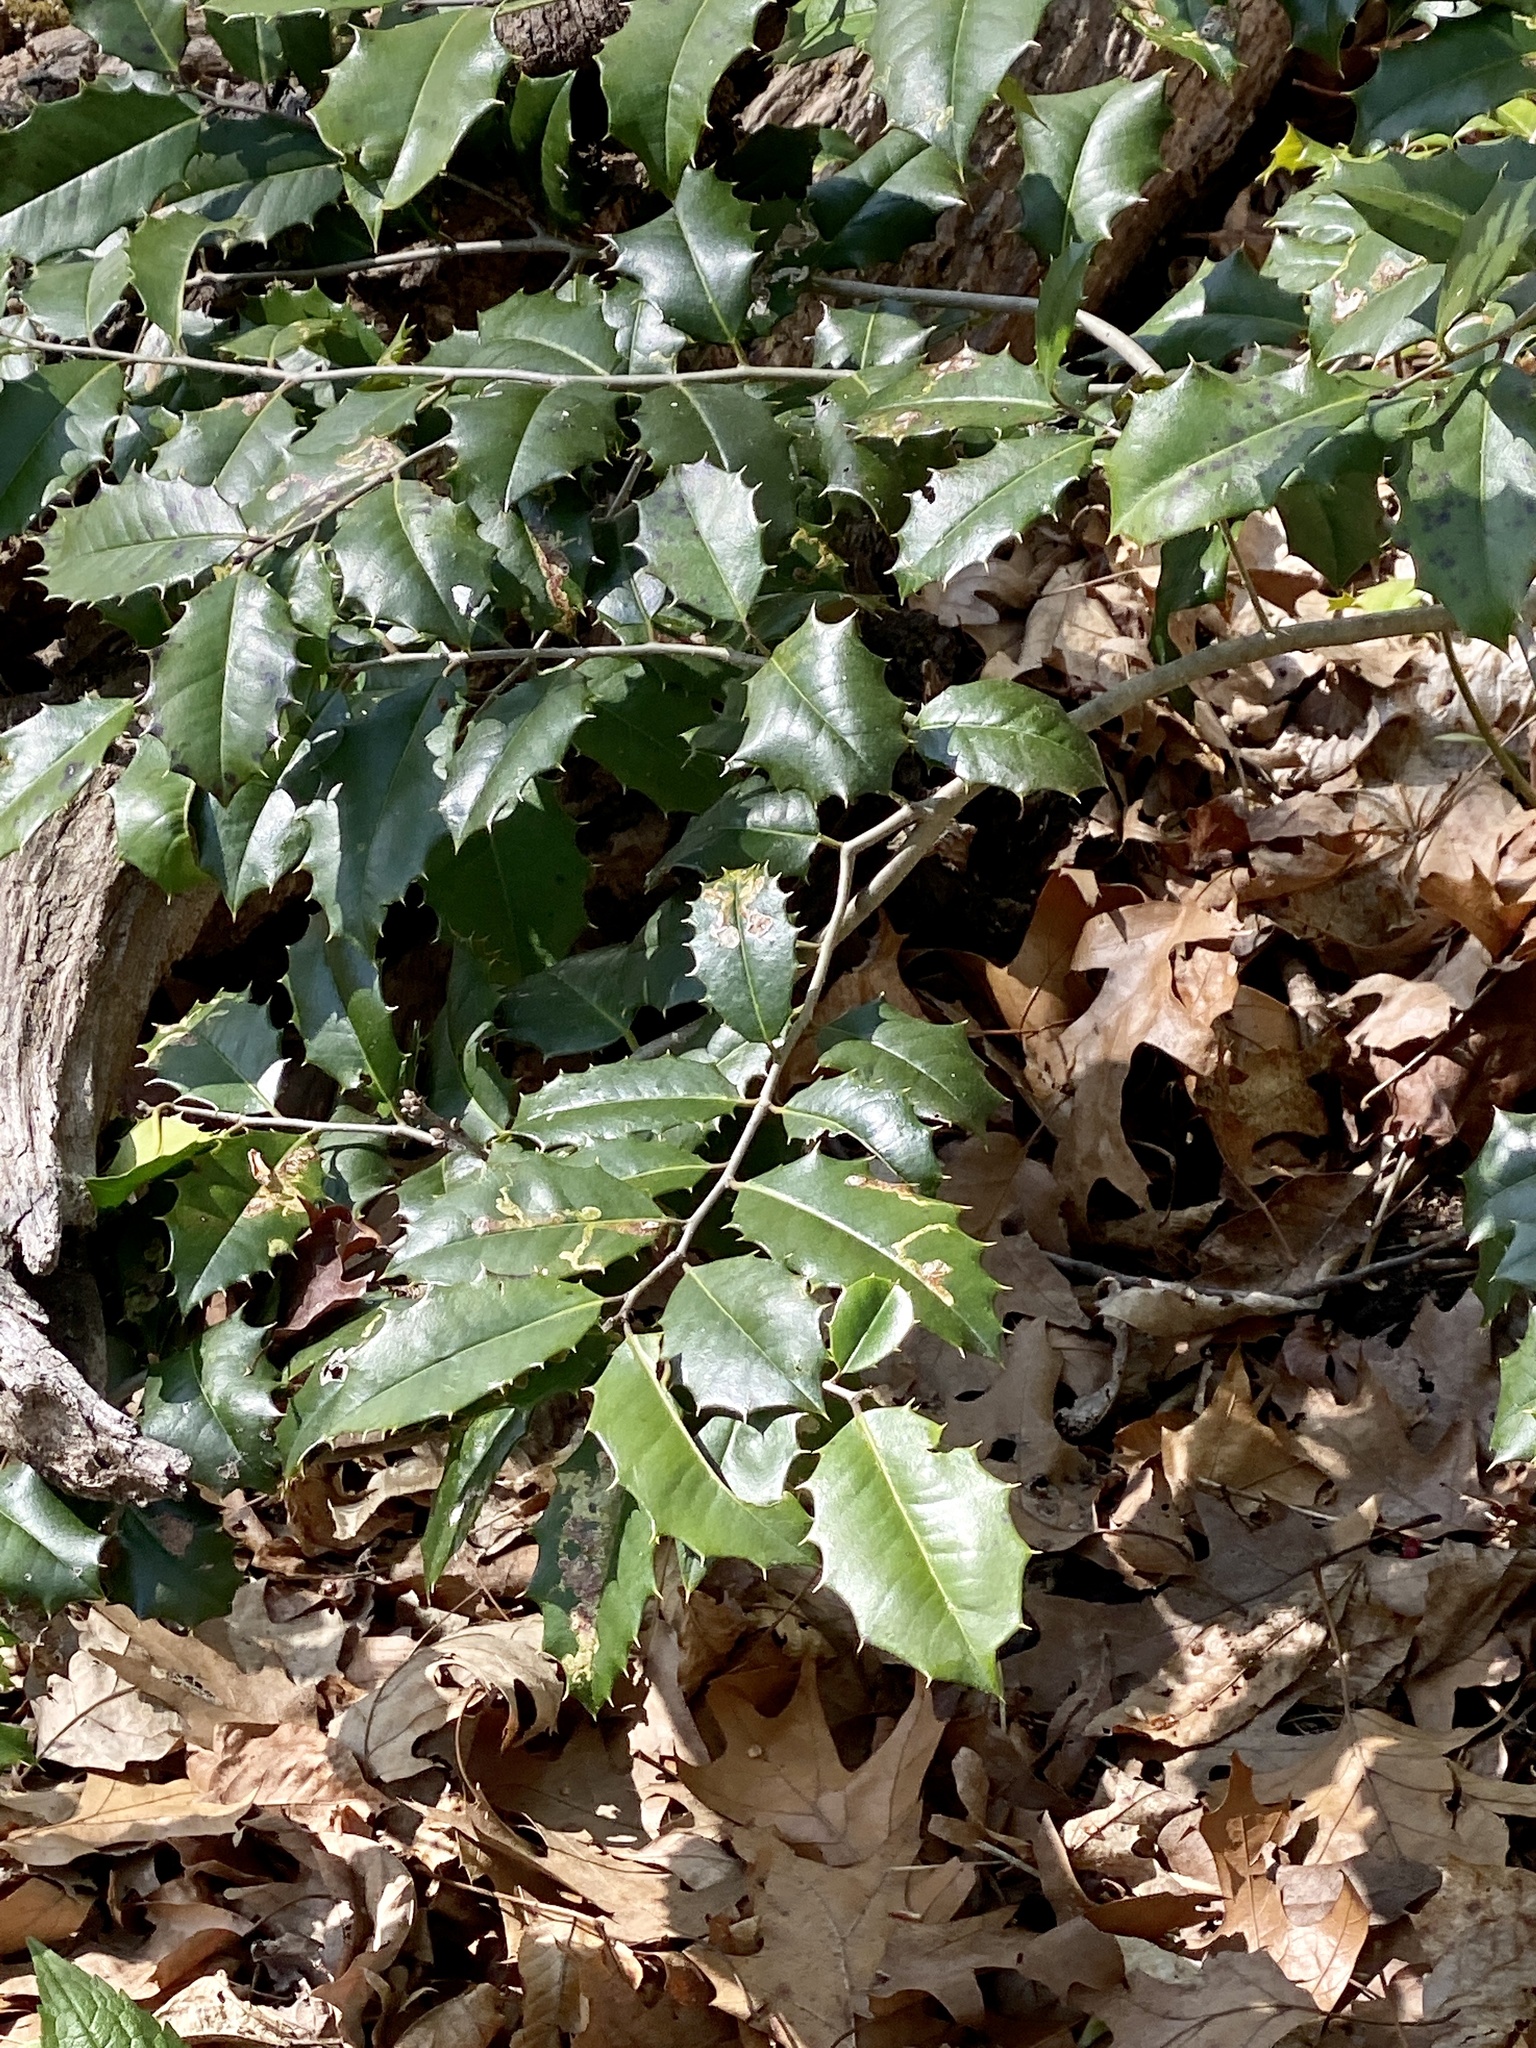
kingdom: Plantae
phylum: Tracheophyta
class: Magnoliopsida
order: Aquifoliales
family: Aquifoliaceae
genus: Ilex
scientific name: Ilex opaca
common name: American holly
